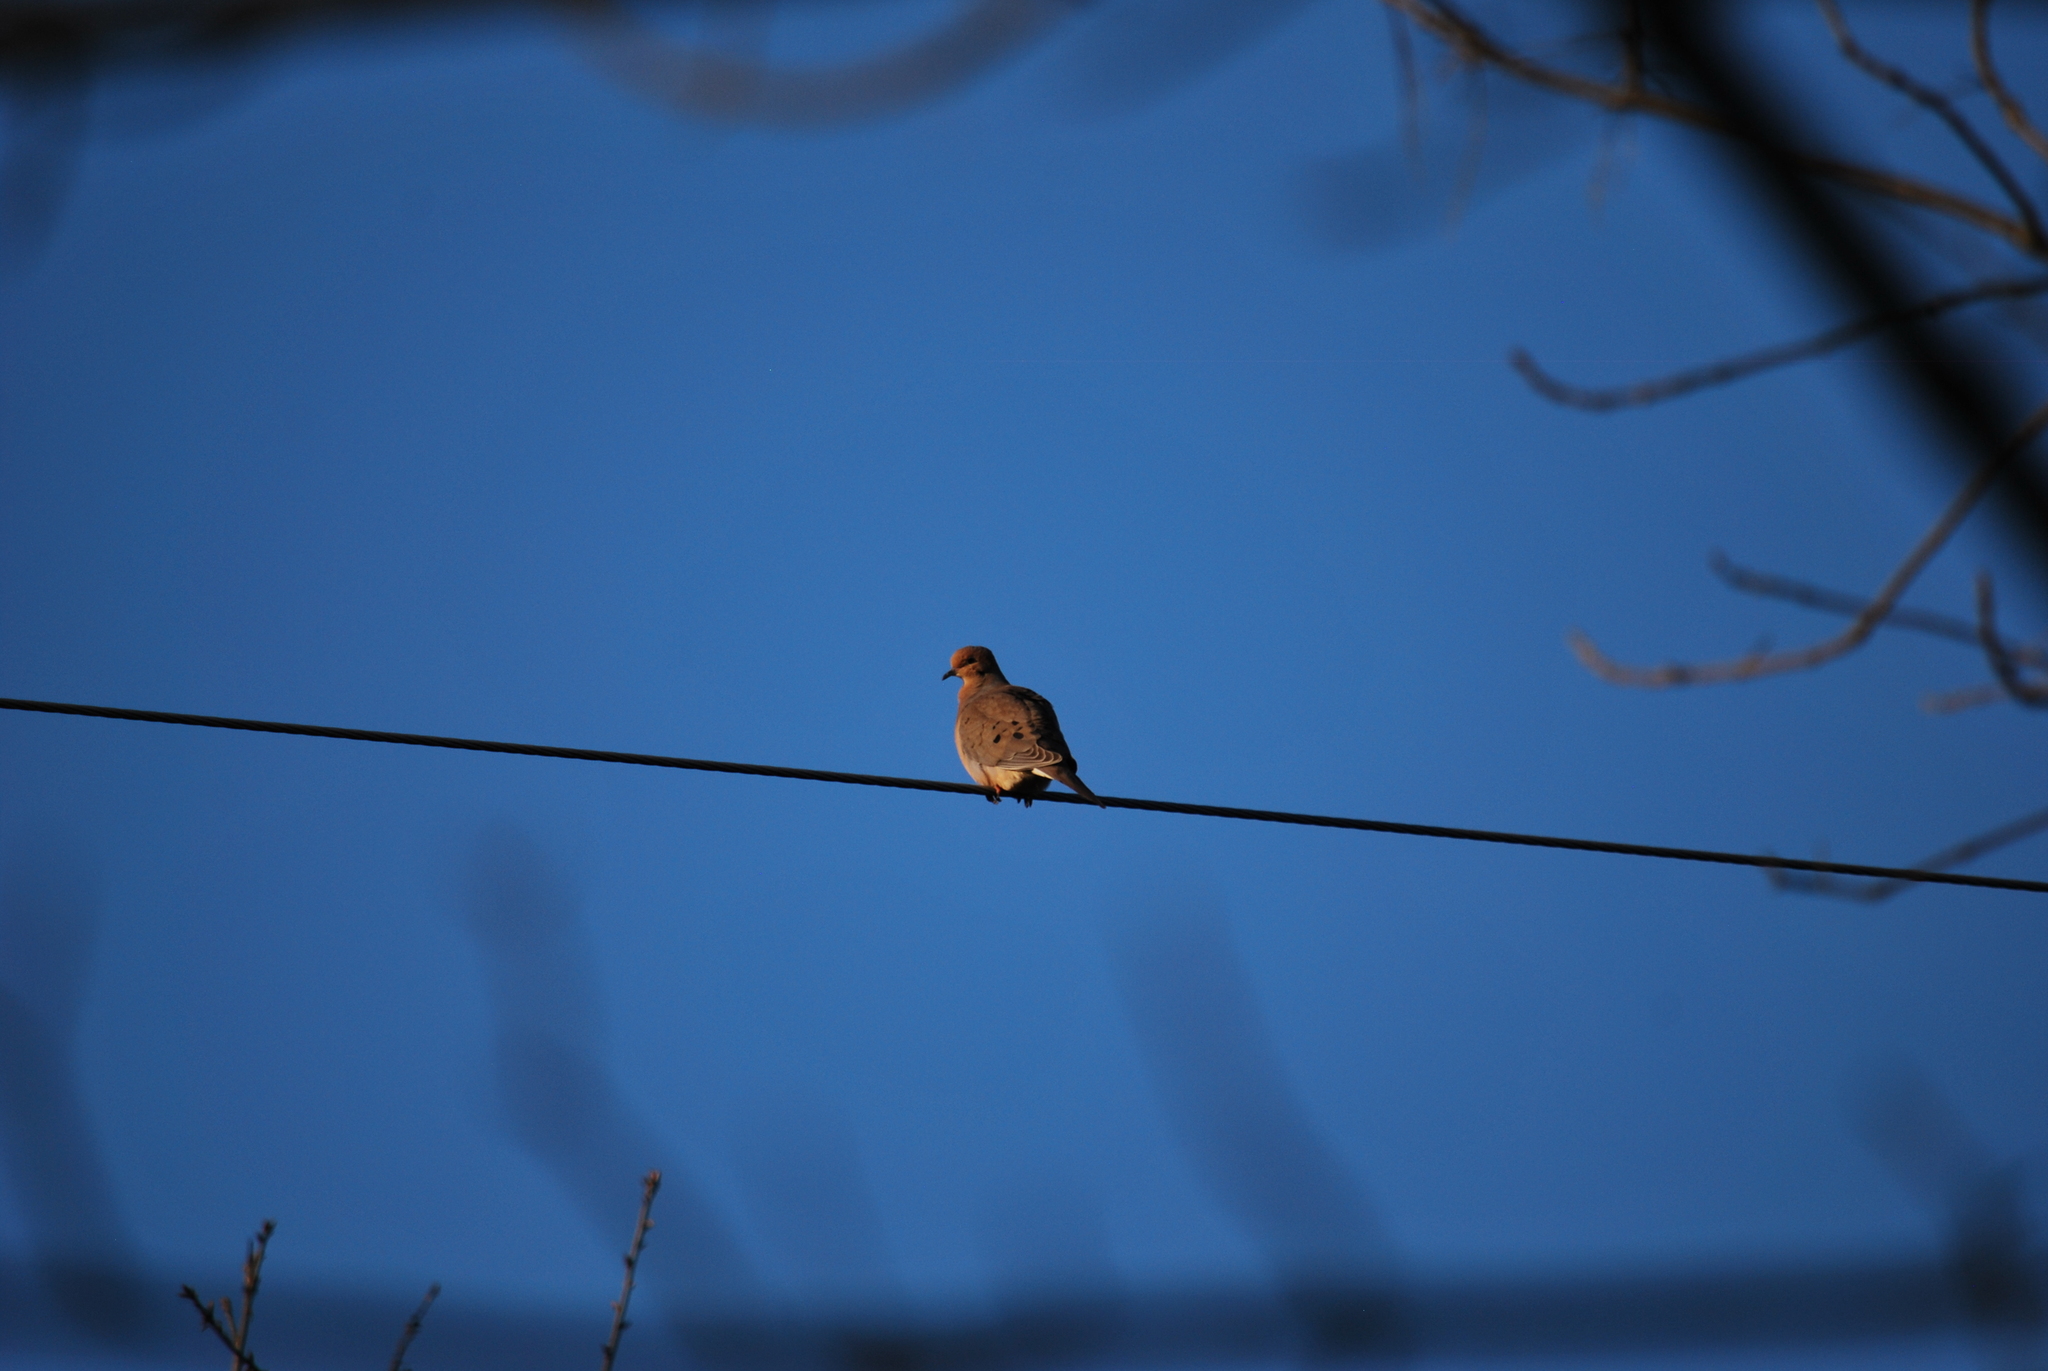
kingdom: Animalia
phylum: Chordata
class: Aves
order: Columbiformes
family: Columbidae
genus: Zenaida
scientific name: Zenaida macroura
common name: Mourning dove
